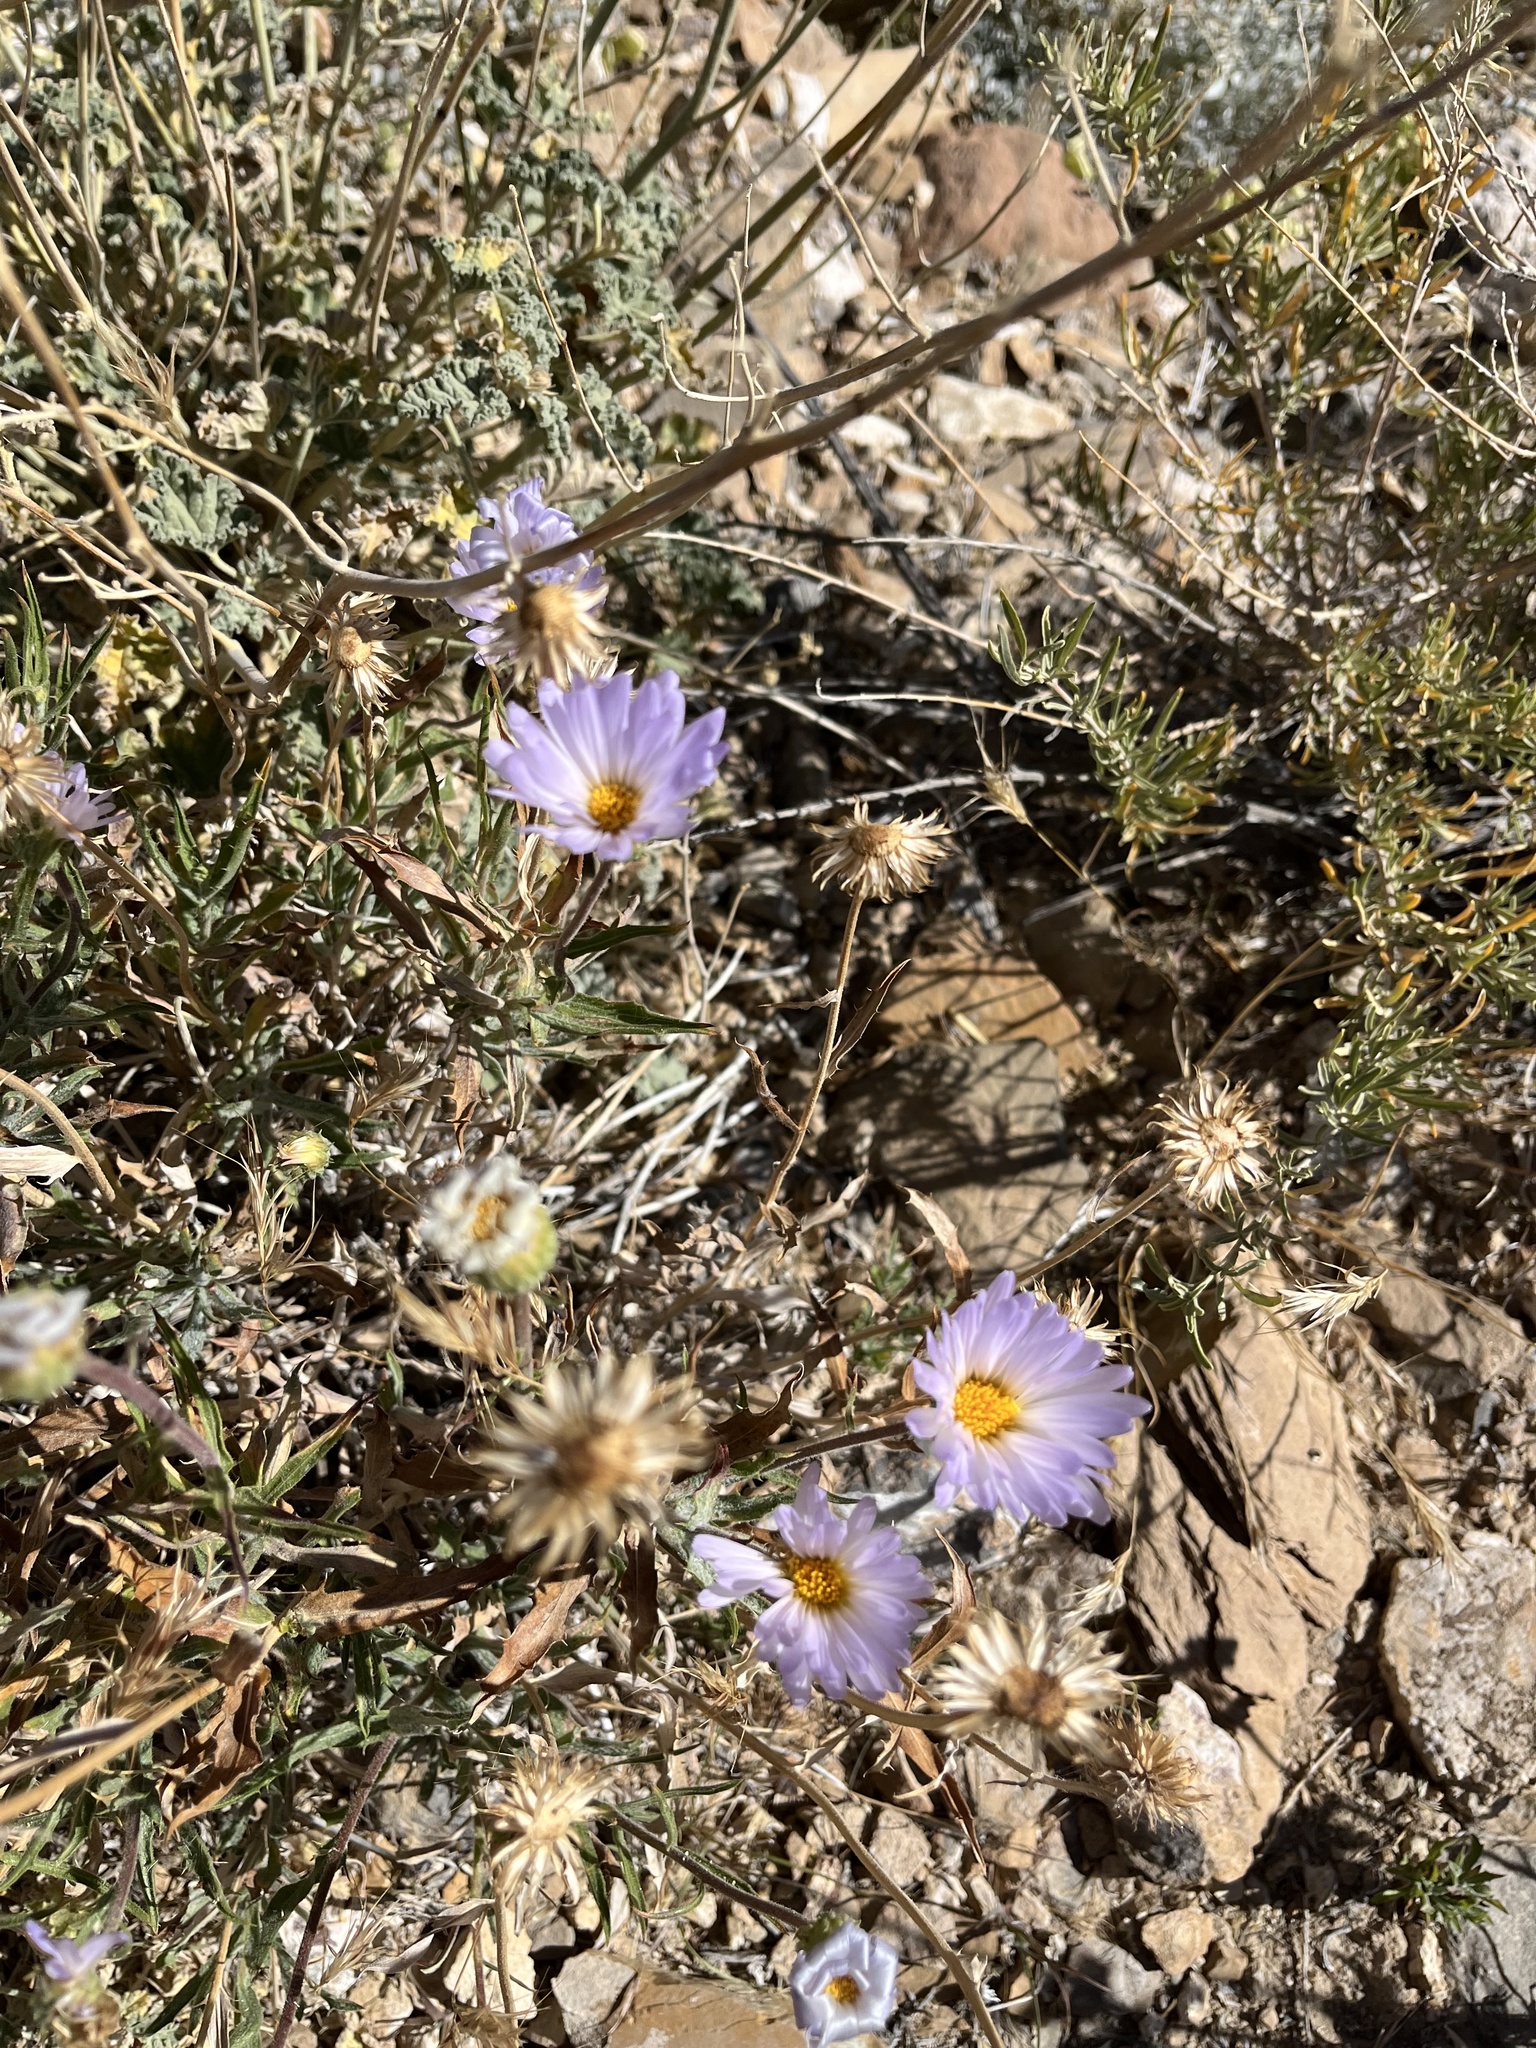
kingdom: Plantae
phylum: Tracheophyta
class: Magnoliopsida
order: Asterales
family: Asteraceae
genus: Xylorhiza
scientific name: Xylorhiza tortifolia
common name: Hurt-leaf woody-aster
